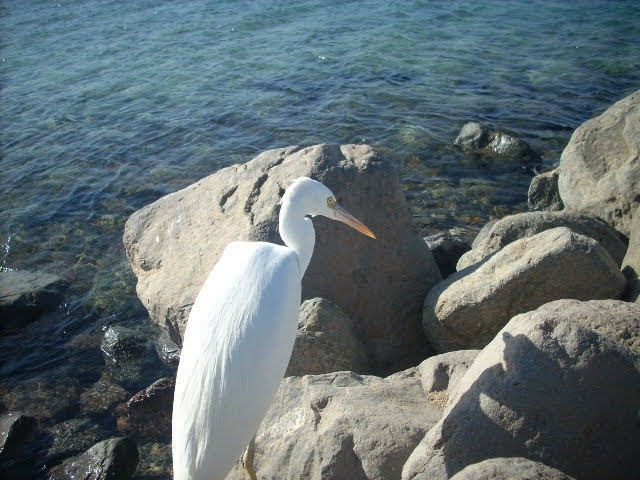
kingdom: Animalia
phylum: Chordata
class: Aves
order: Pelecaniformes
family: Ardeidae
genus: Egretta
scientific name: Egretta gularis
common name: Western reef-heron
